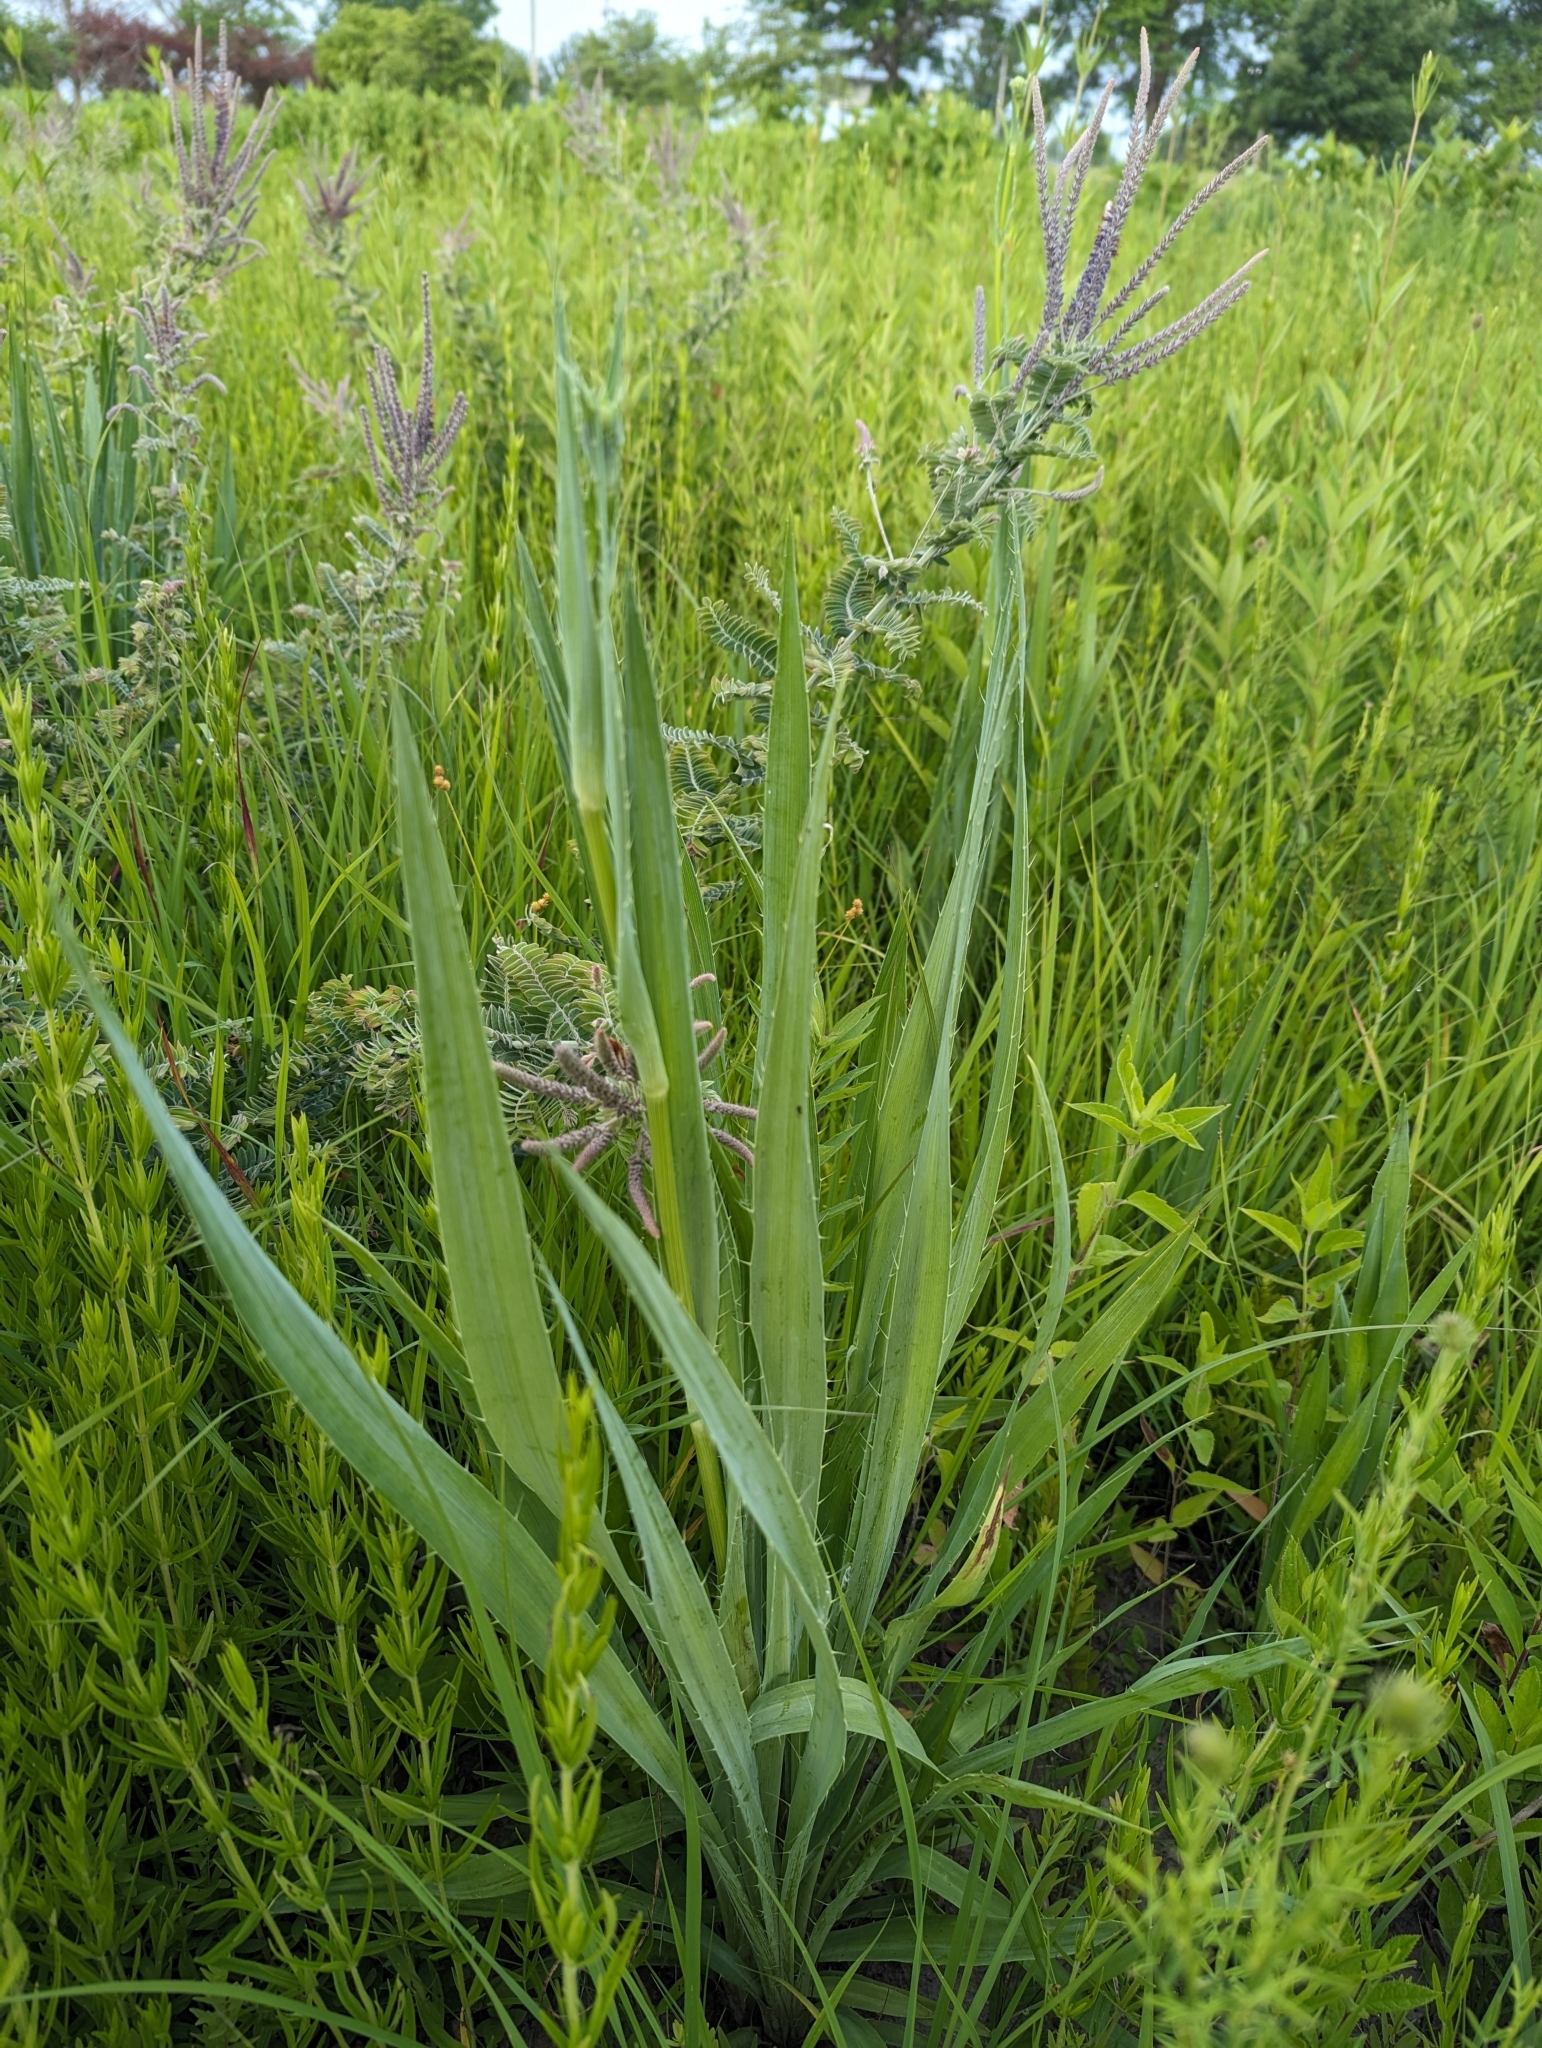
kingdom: Plantae
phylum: Tracheophyta
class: Magnoliopsida
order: Apiales
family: Apiaceae
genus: Eryngium
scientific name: Eryngium yuccifolium
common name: Button eryngo
